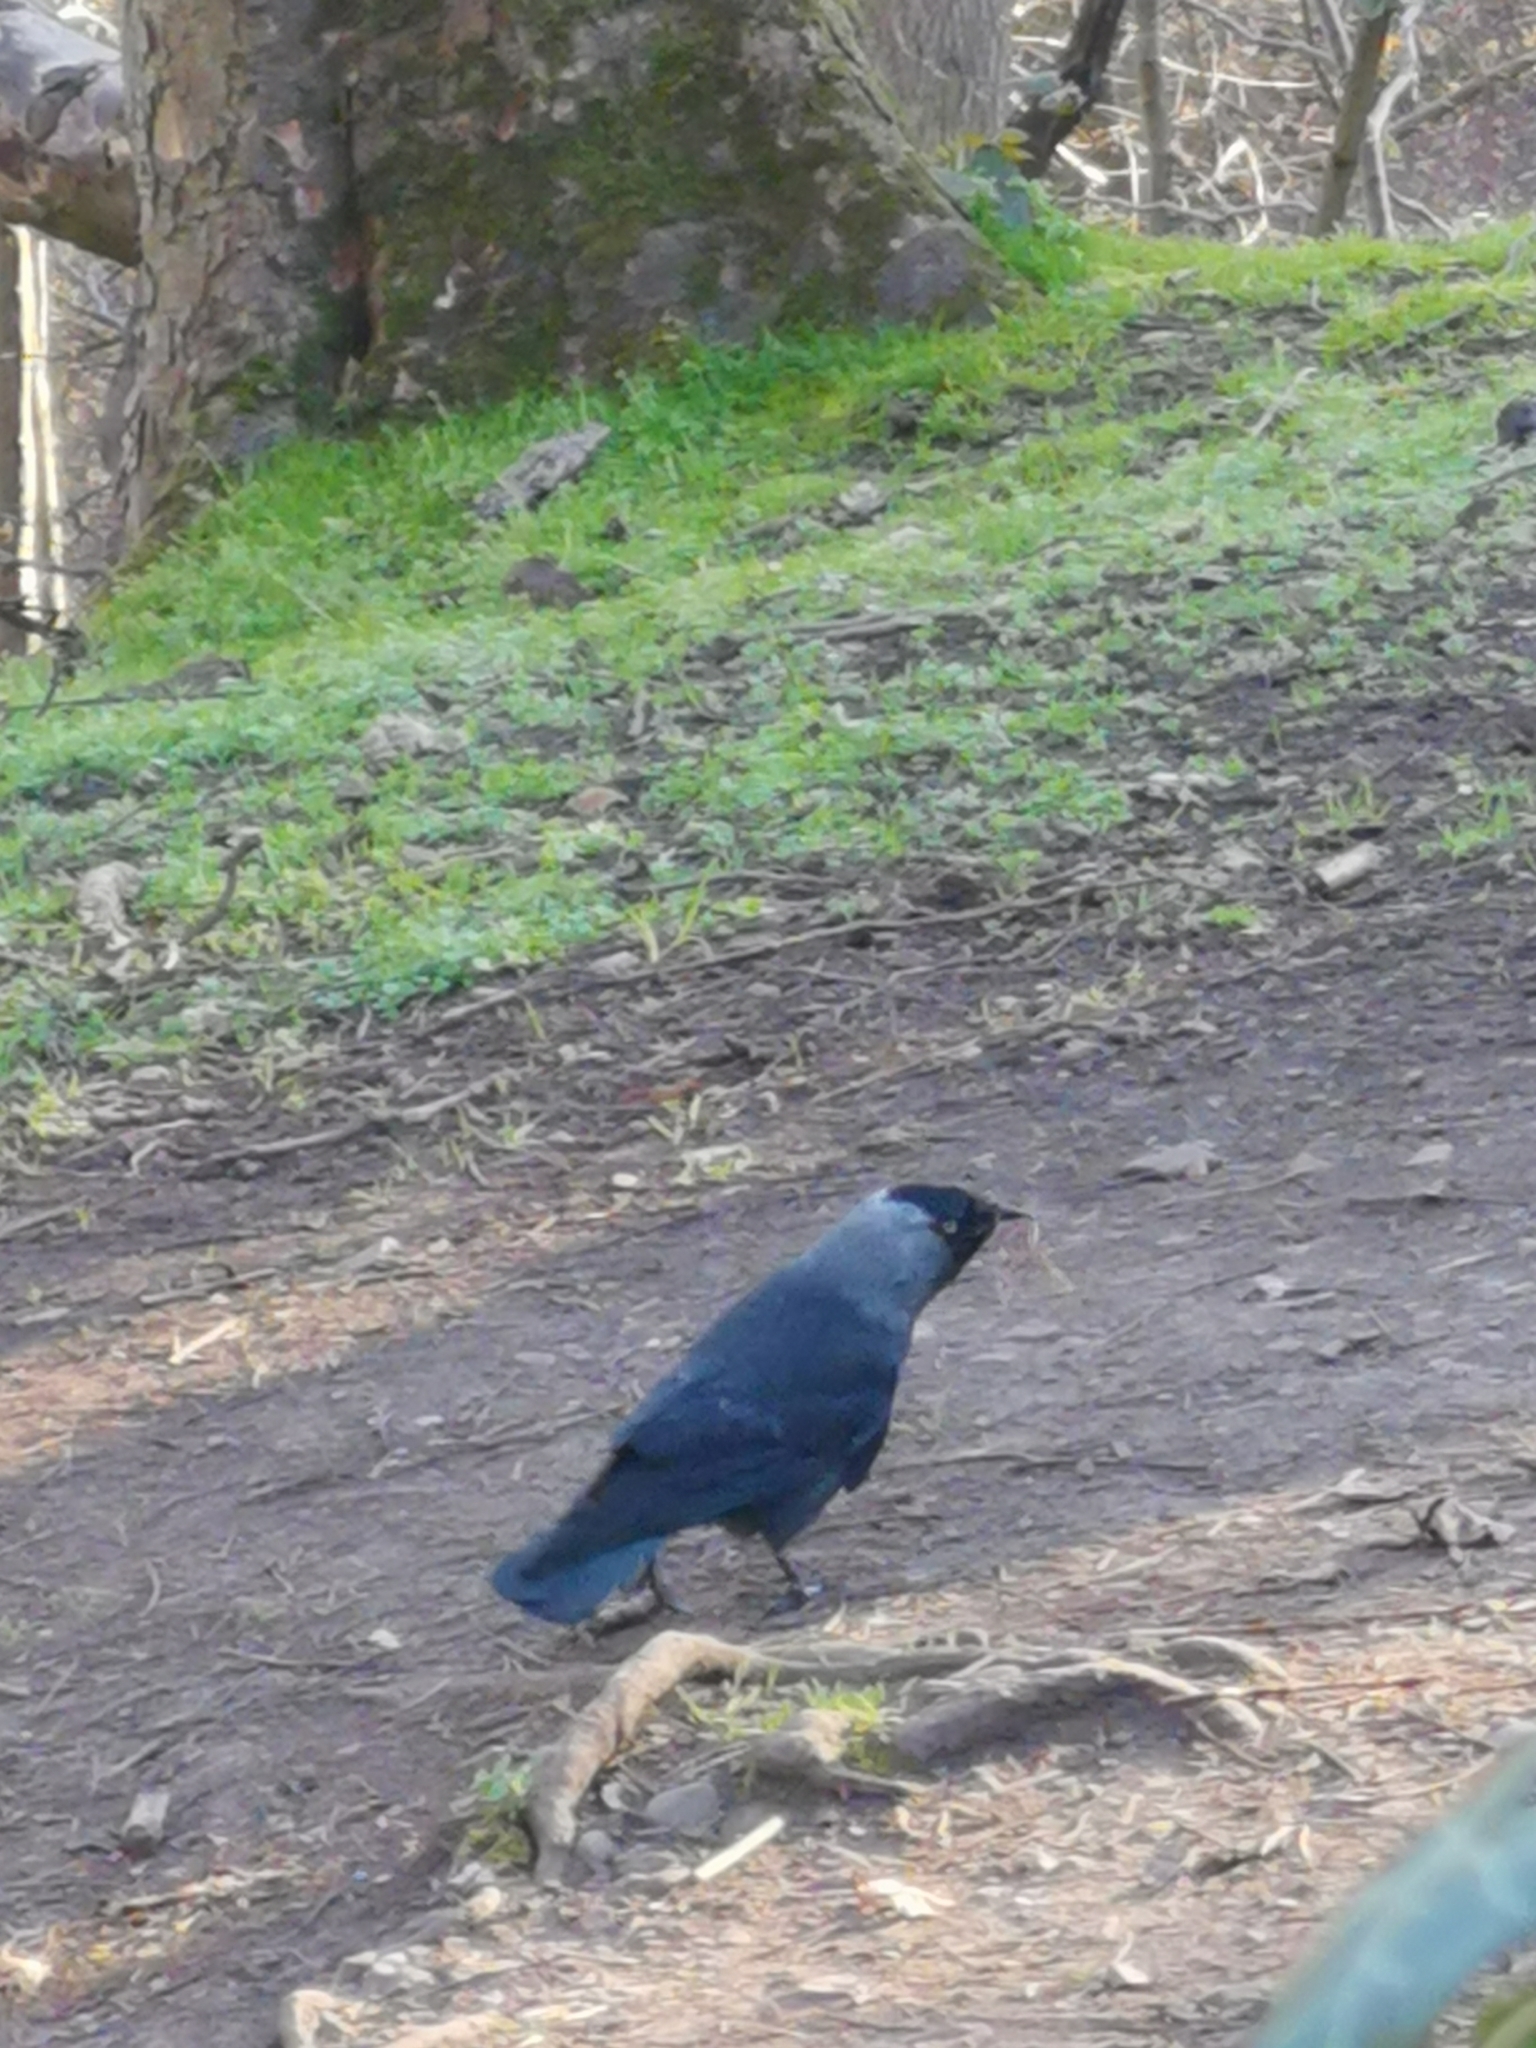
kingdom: Animalia
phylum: Chordata
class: Aves
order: Passeriformes
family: Corvidae
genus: Coloeus
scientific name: Coloeus monedula
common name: Western jackdaw
